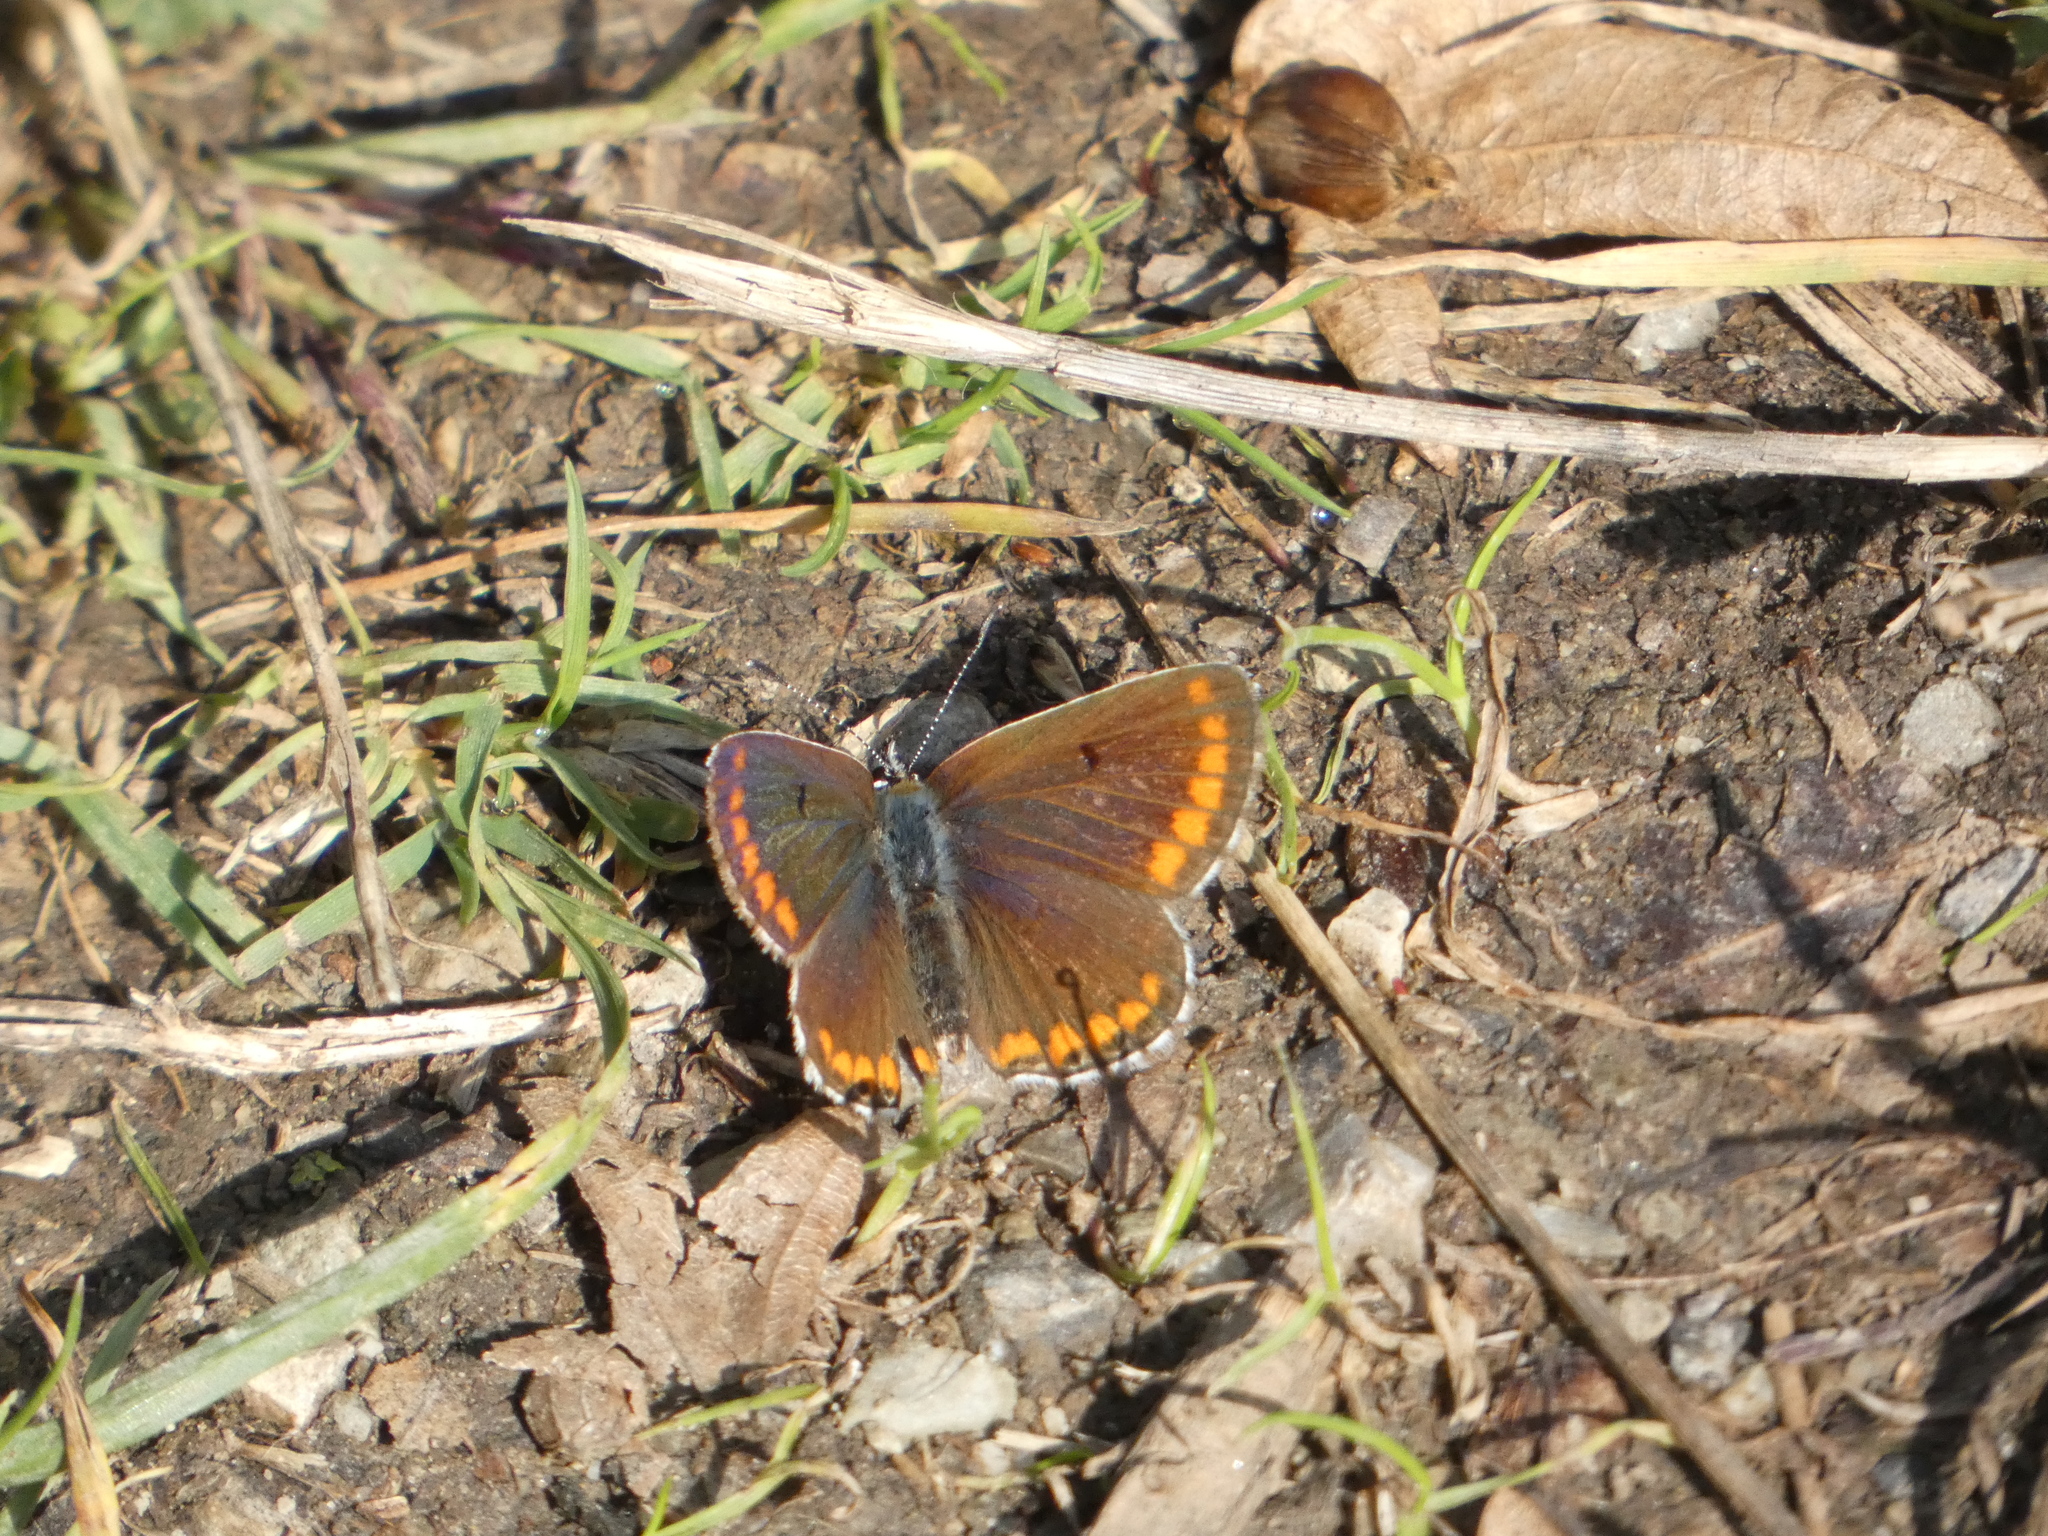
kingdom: Animalia
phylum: Arthropoda
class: Insecta
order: Lepidoptera
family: Lycaenidae
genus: Aricia
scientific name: Aricia agestis
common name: Brown argus
